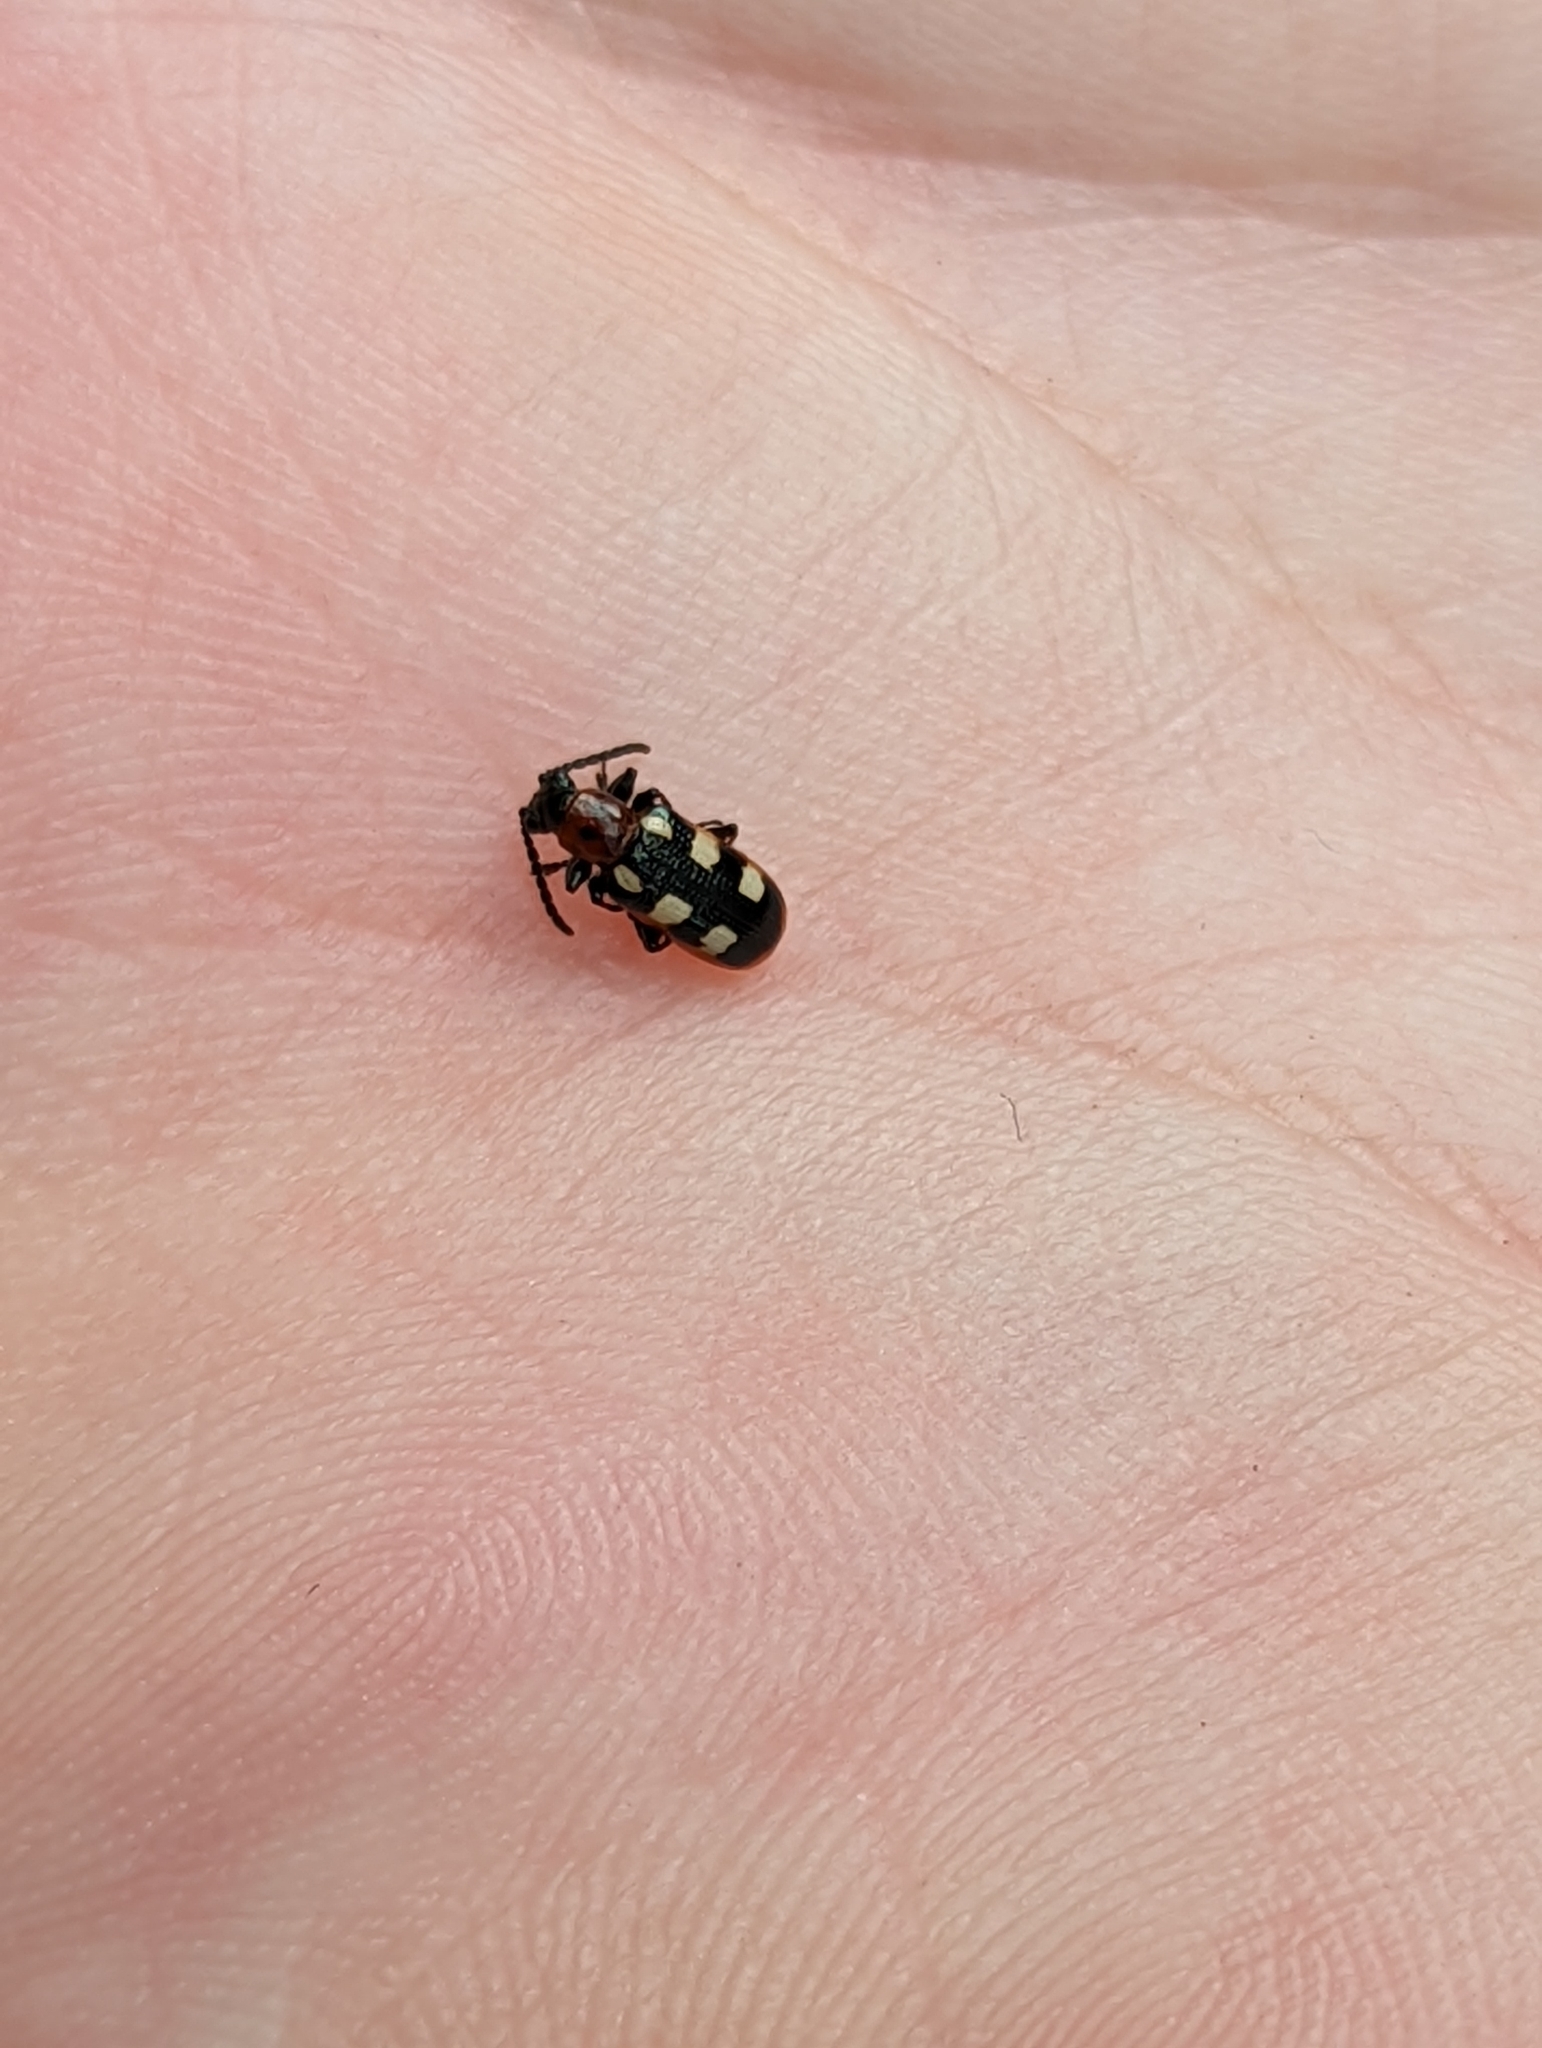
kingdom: Animalia
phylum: Arthropoda
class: Insecta
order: Coleoptera
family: Chrysomelidae
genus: Crioceris
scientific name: Crioceris asparagi
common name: Asparagus beetle
